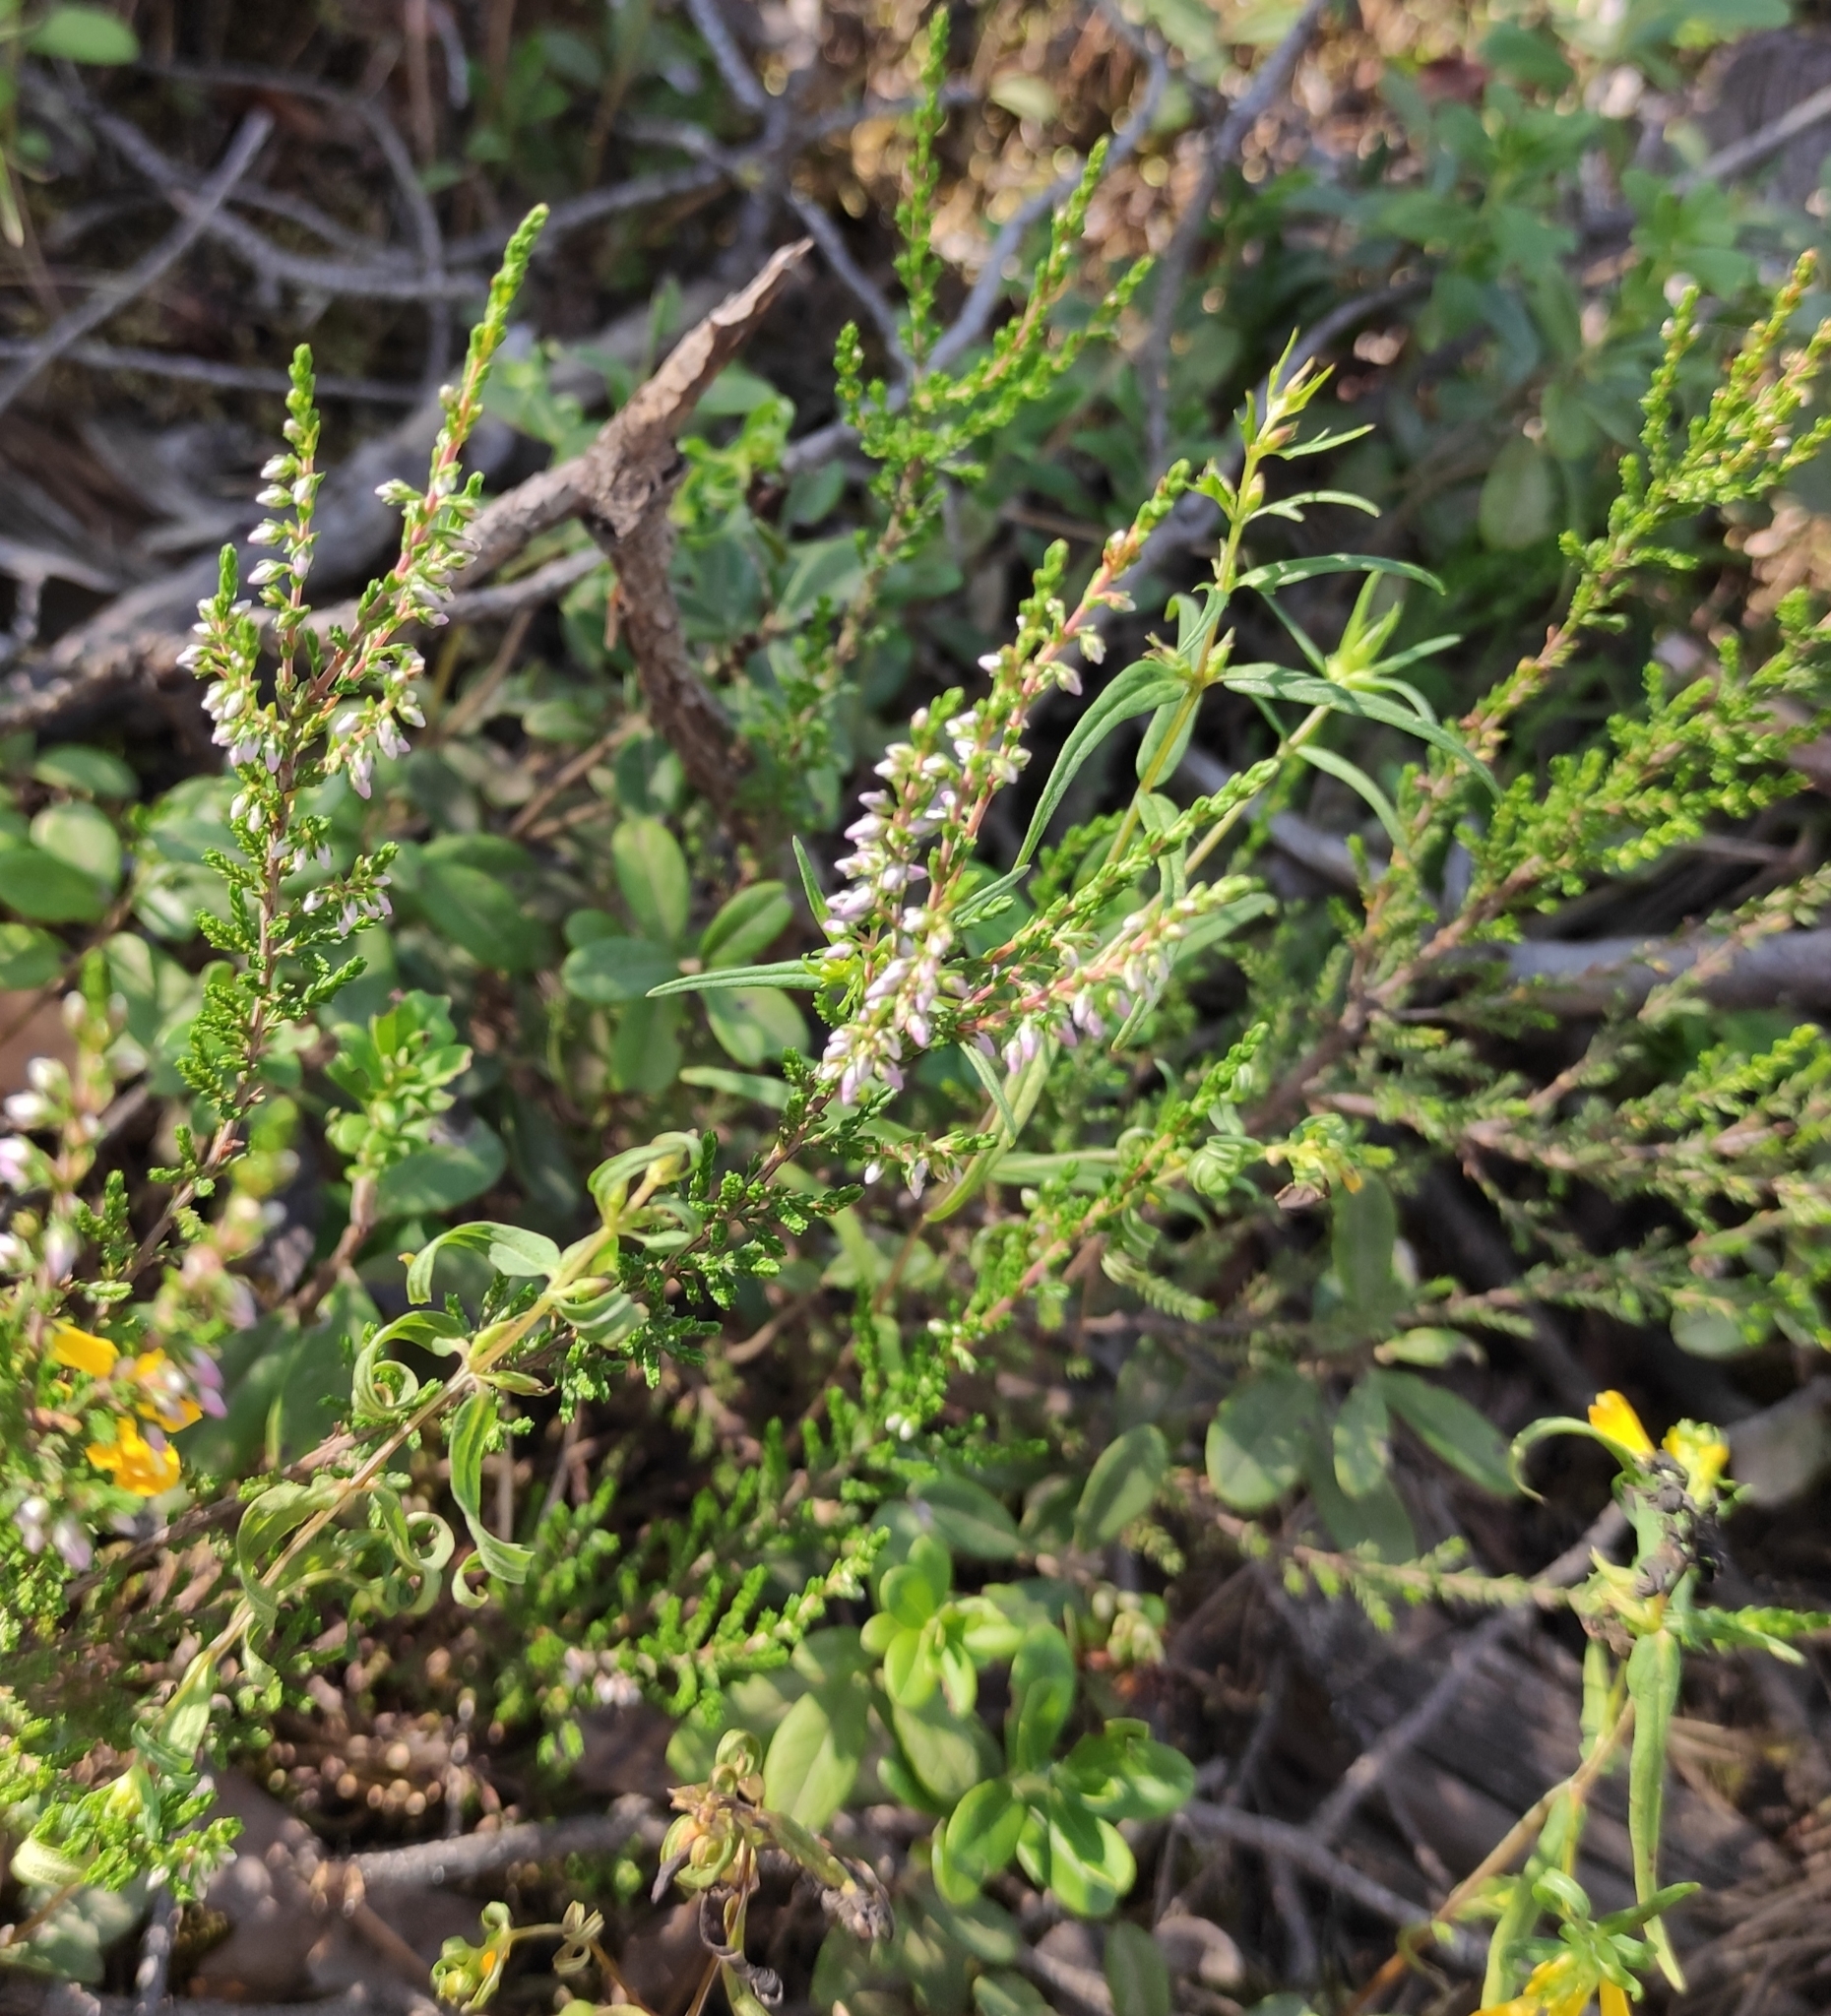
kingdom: Plantae
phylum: Tracheophyta
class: Magnoliopsida
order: Ericales
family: Ericaceae
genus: Calluna
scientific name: Calluna vulgaris
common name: Heather
